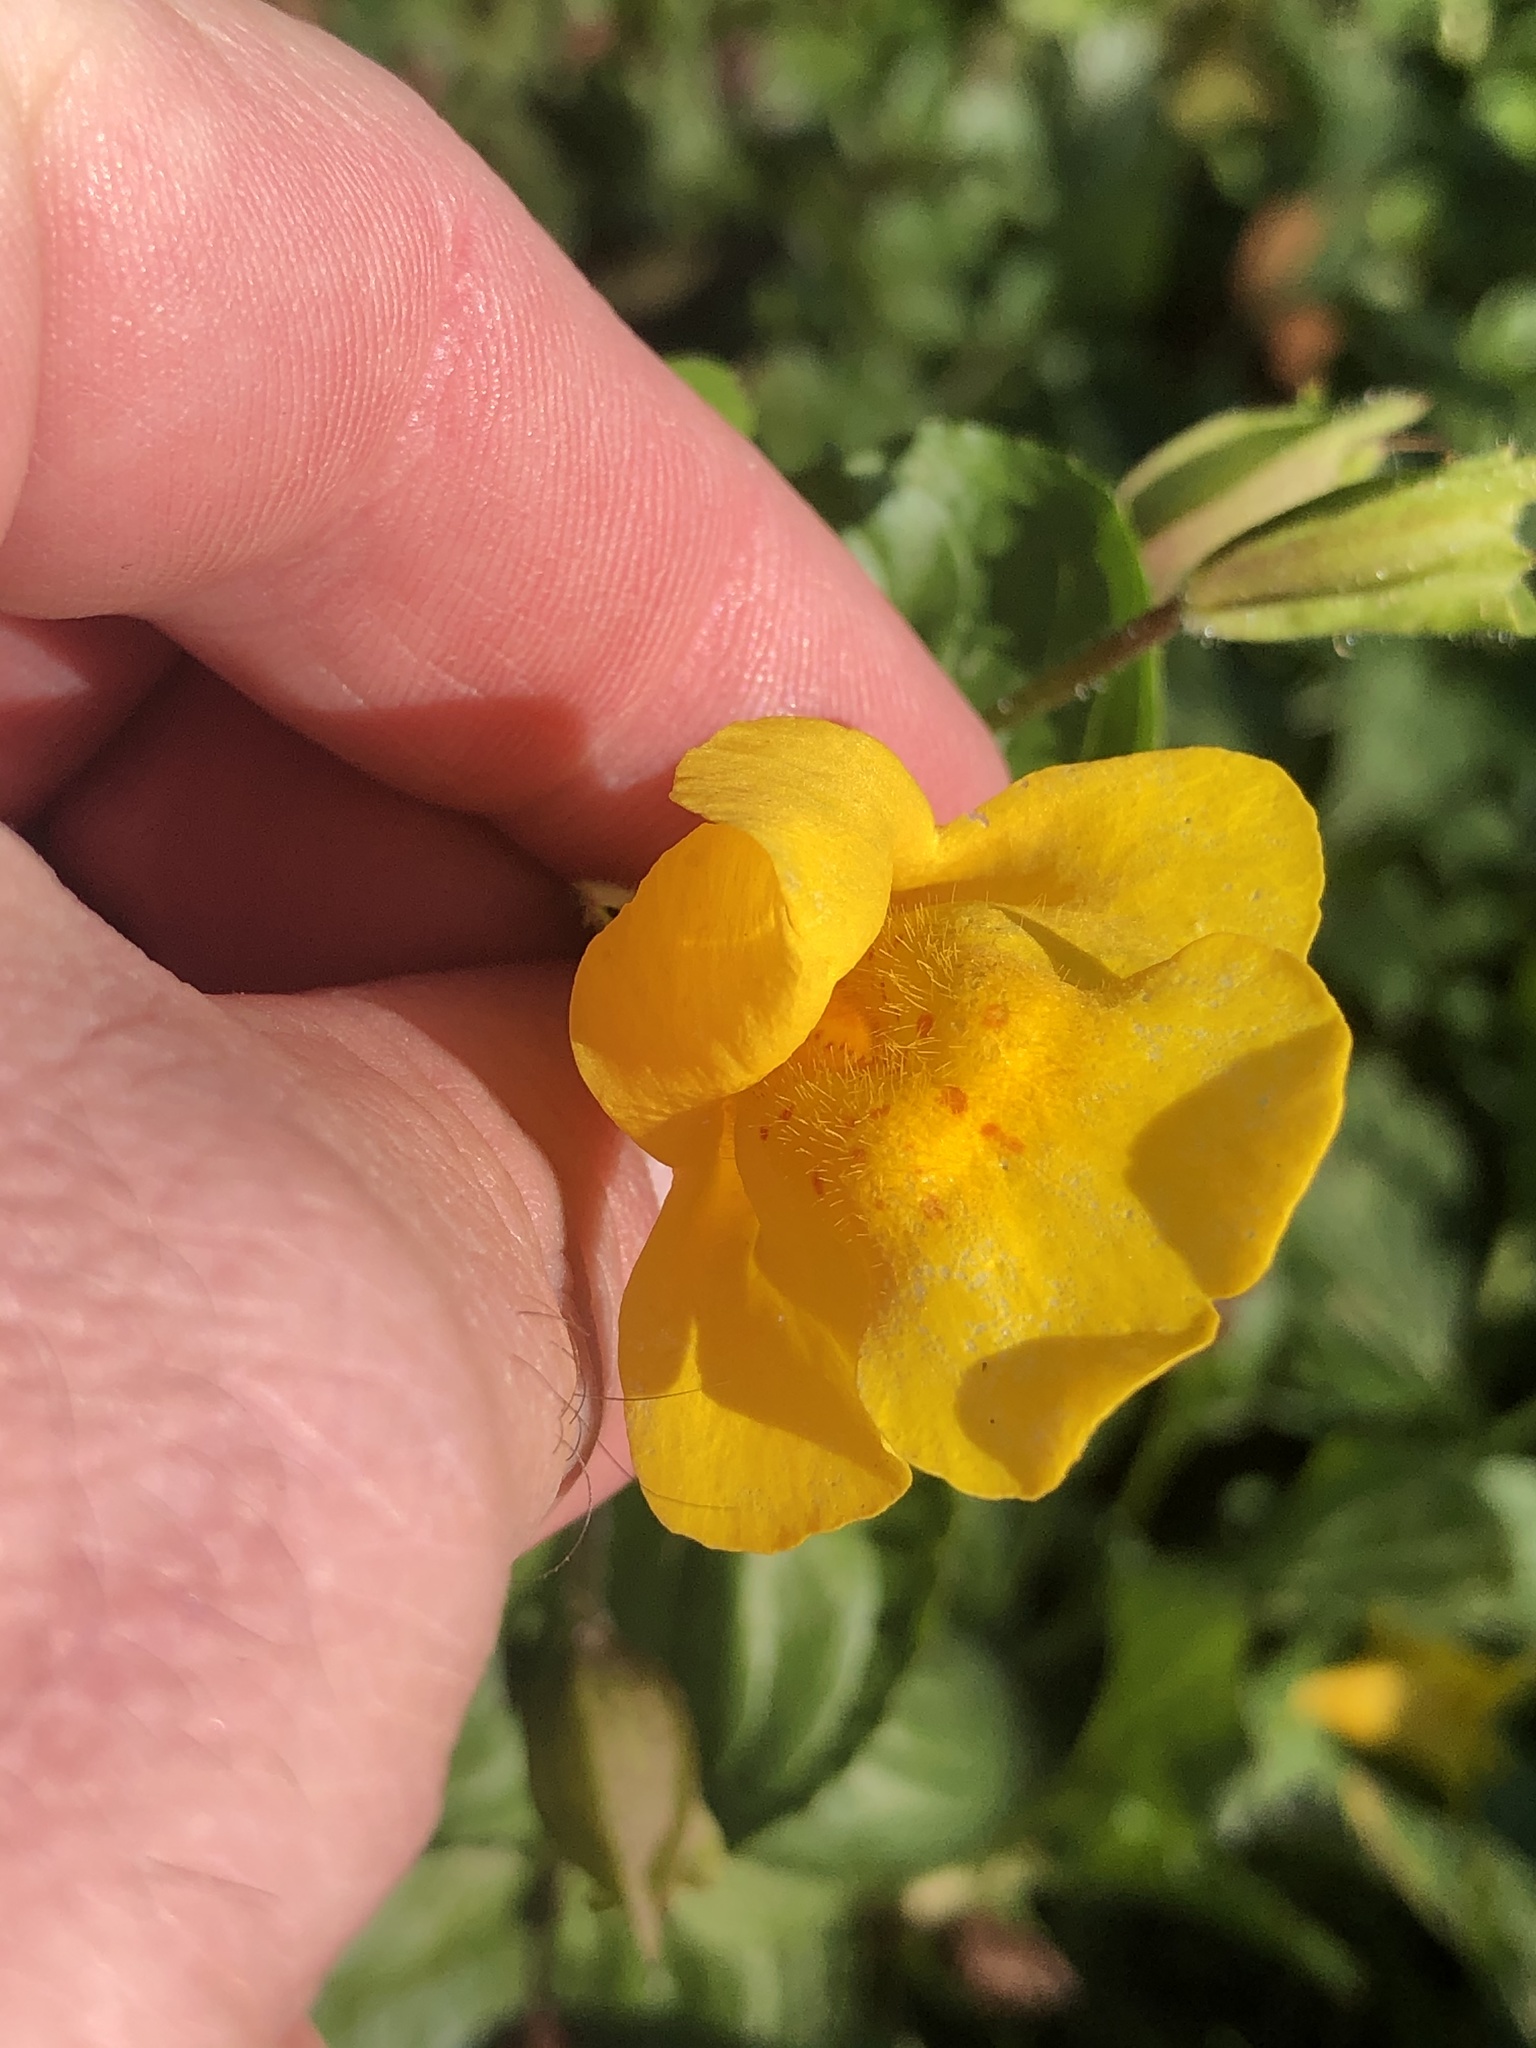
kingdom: Plantae
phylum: Tracheophyta
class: Magnoliopsida
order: Lamiales
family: Phrymaceae
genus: Erythranthe
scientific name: Erythranthe guttata
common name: Monkeyflower
